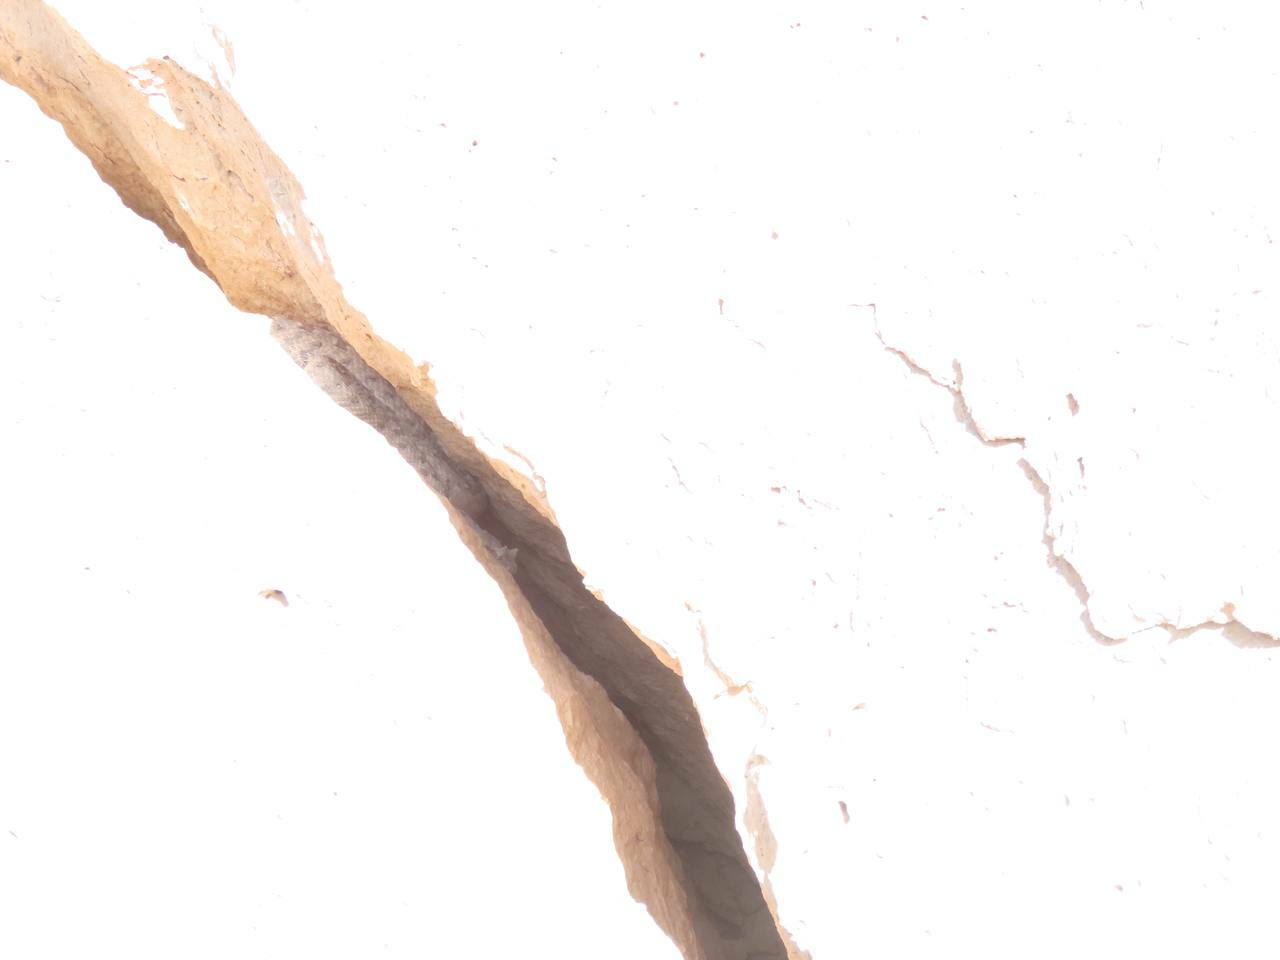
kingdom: Animalia
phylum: Chordata
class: Squamata
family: Viperidae
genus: Pseudocerastes
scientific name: Pseudocerastes persicus
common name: Persian horned viper
